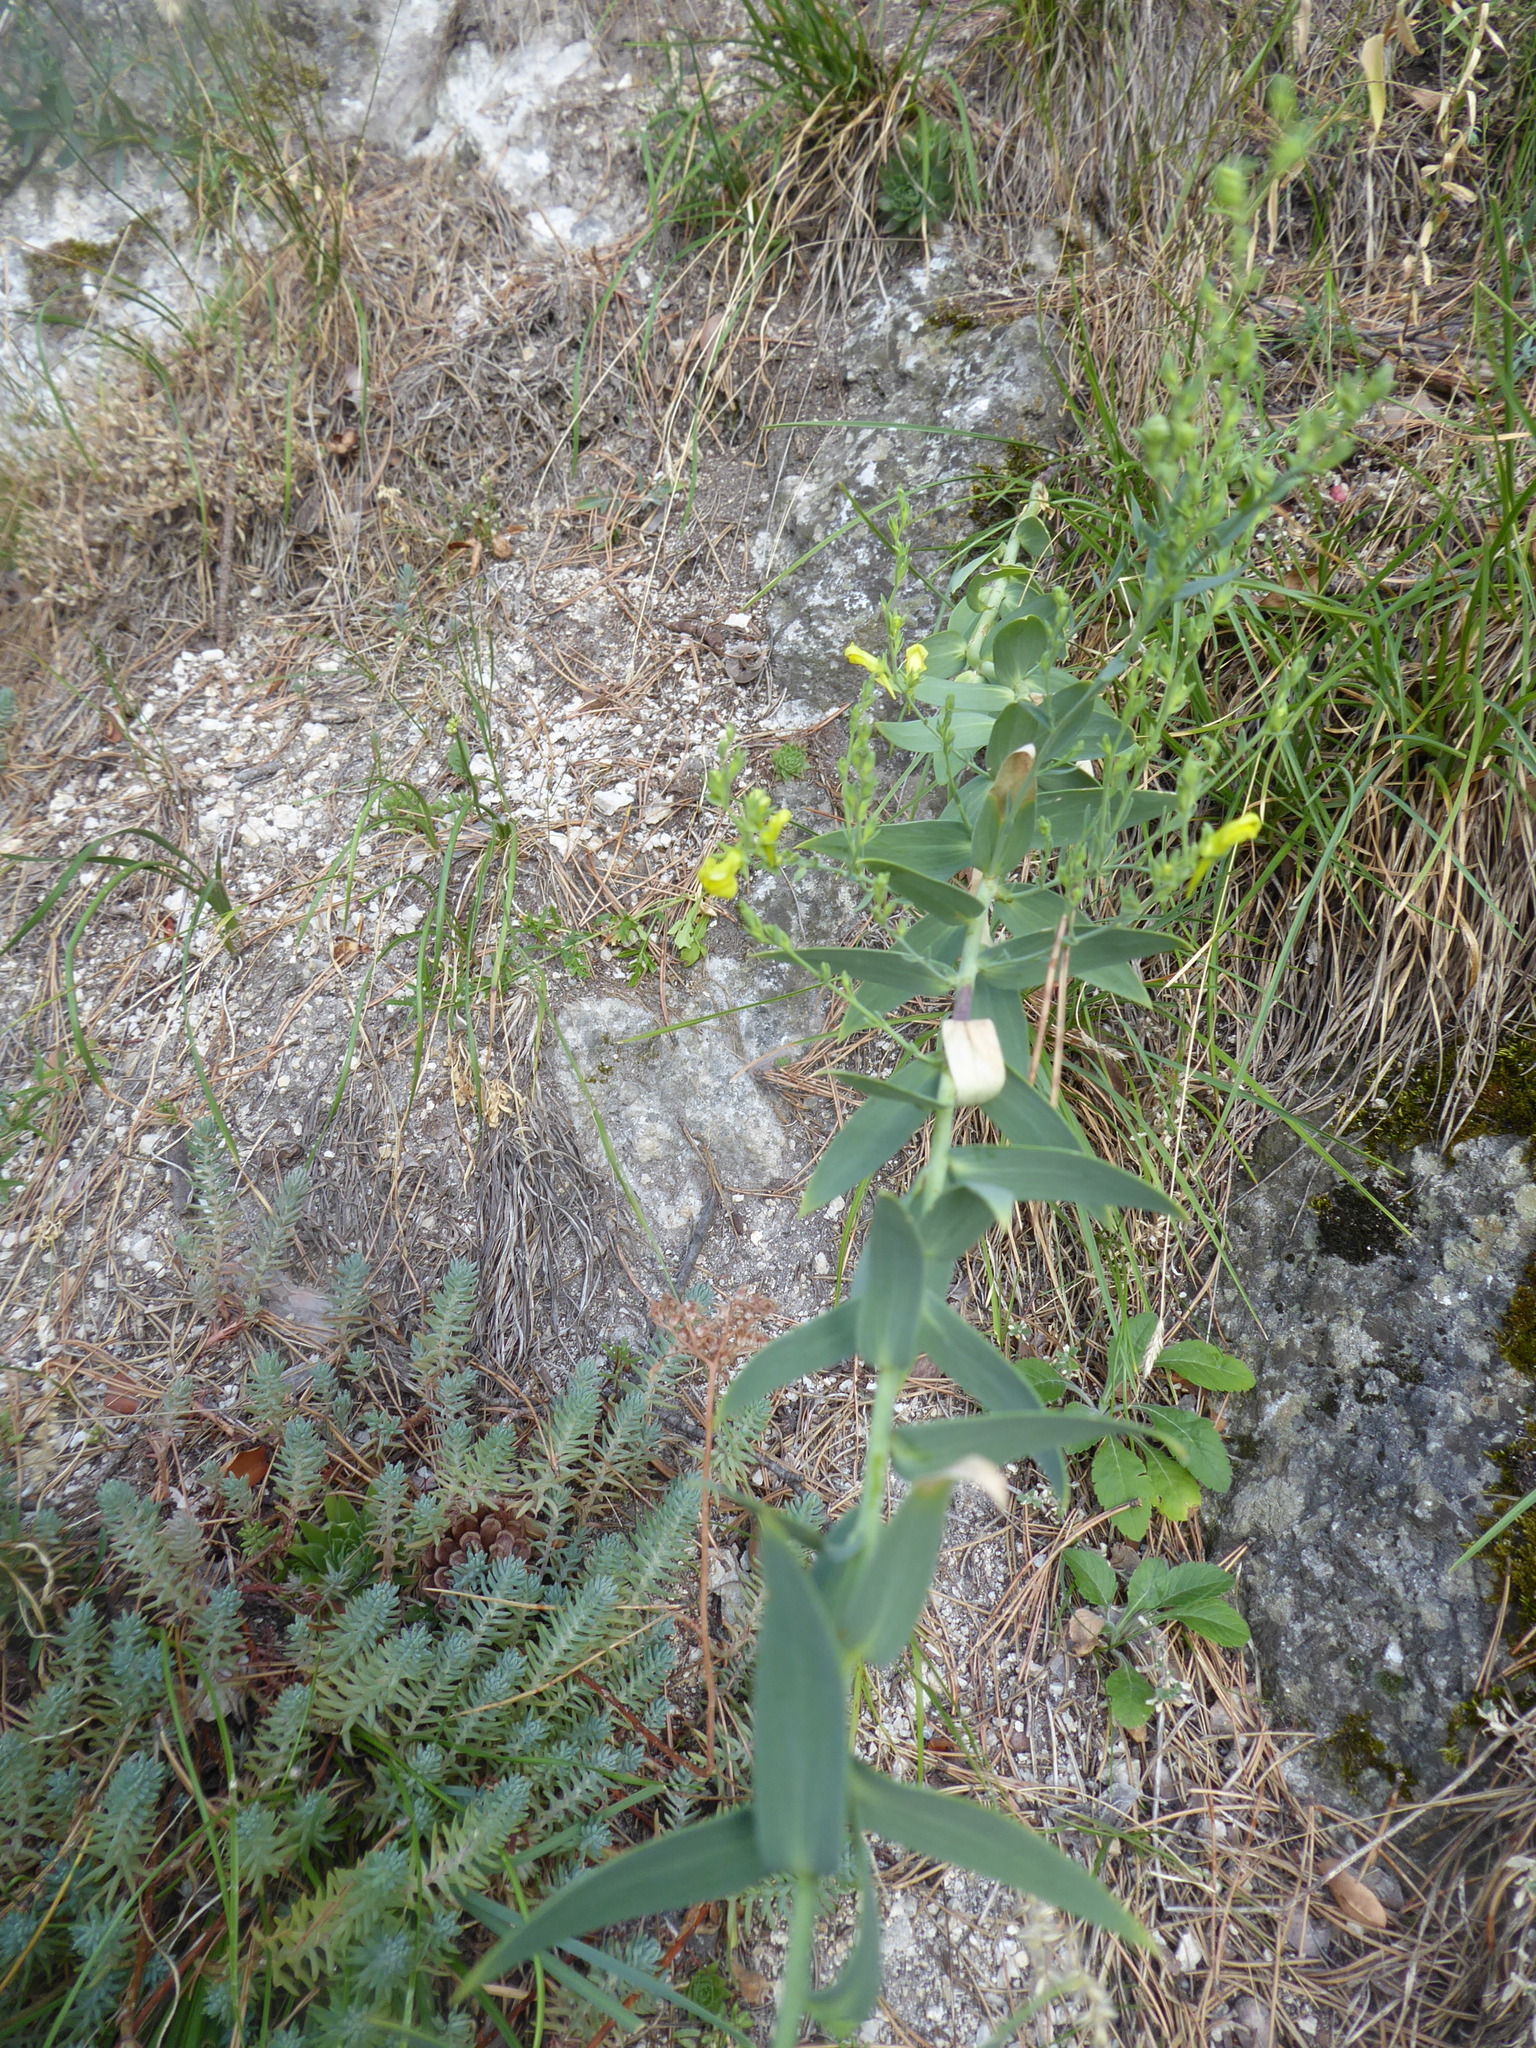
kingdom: Plantae
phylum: Tracheophyta
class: Magnoliopsida
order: Lamiales
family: Plantaginaceae
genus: Linaria
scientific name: Linaria genistifolia
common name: Broomleaf toadflax
